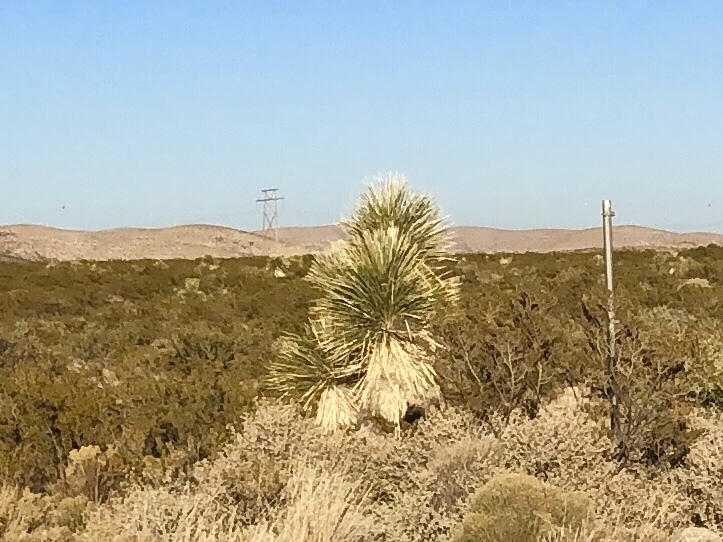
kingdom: Plantae
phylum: Tracheophyta
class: Liliopsida
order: Asparagales
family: Asparagaceae
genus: Yucca
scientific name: Yucca elata
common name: Palmella
